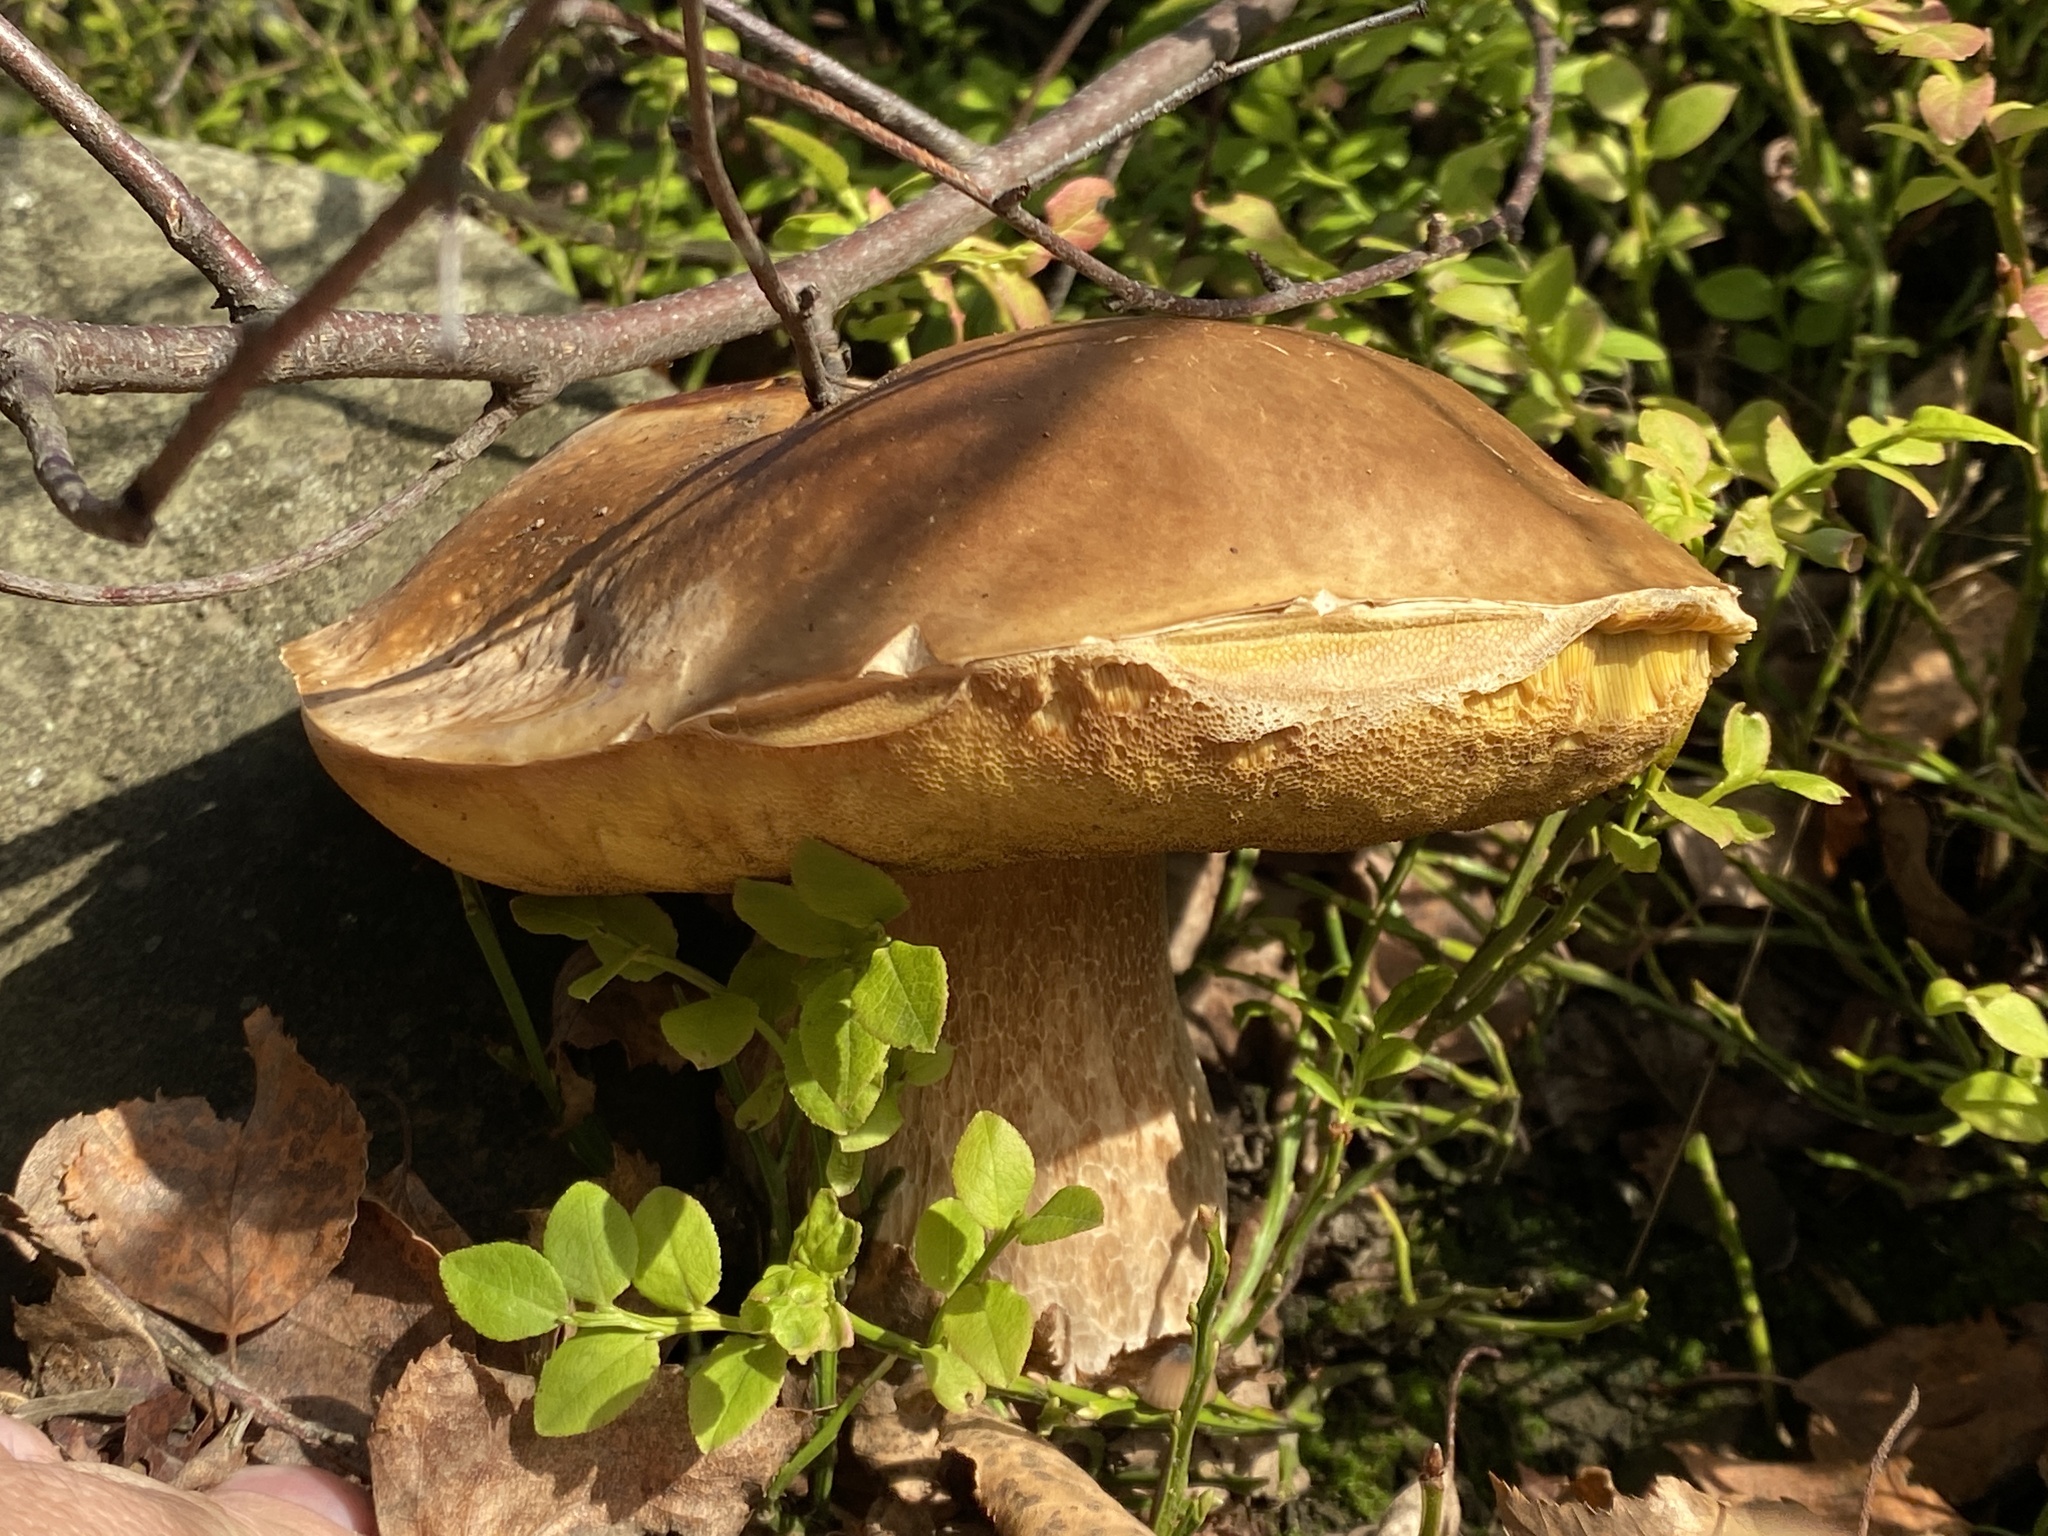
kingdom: Fungi
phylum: Basidiomycota
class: Agaricomycetes
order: Boletales
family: Boletaceae
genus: Boletus
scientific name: Boletus edulis
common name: Cep
